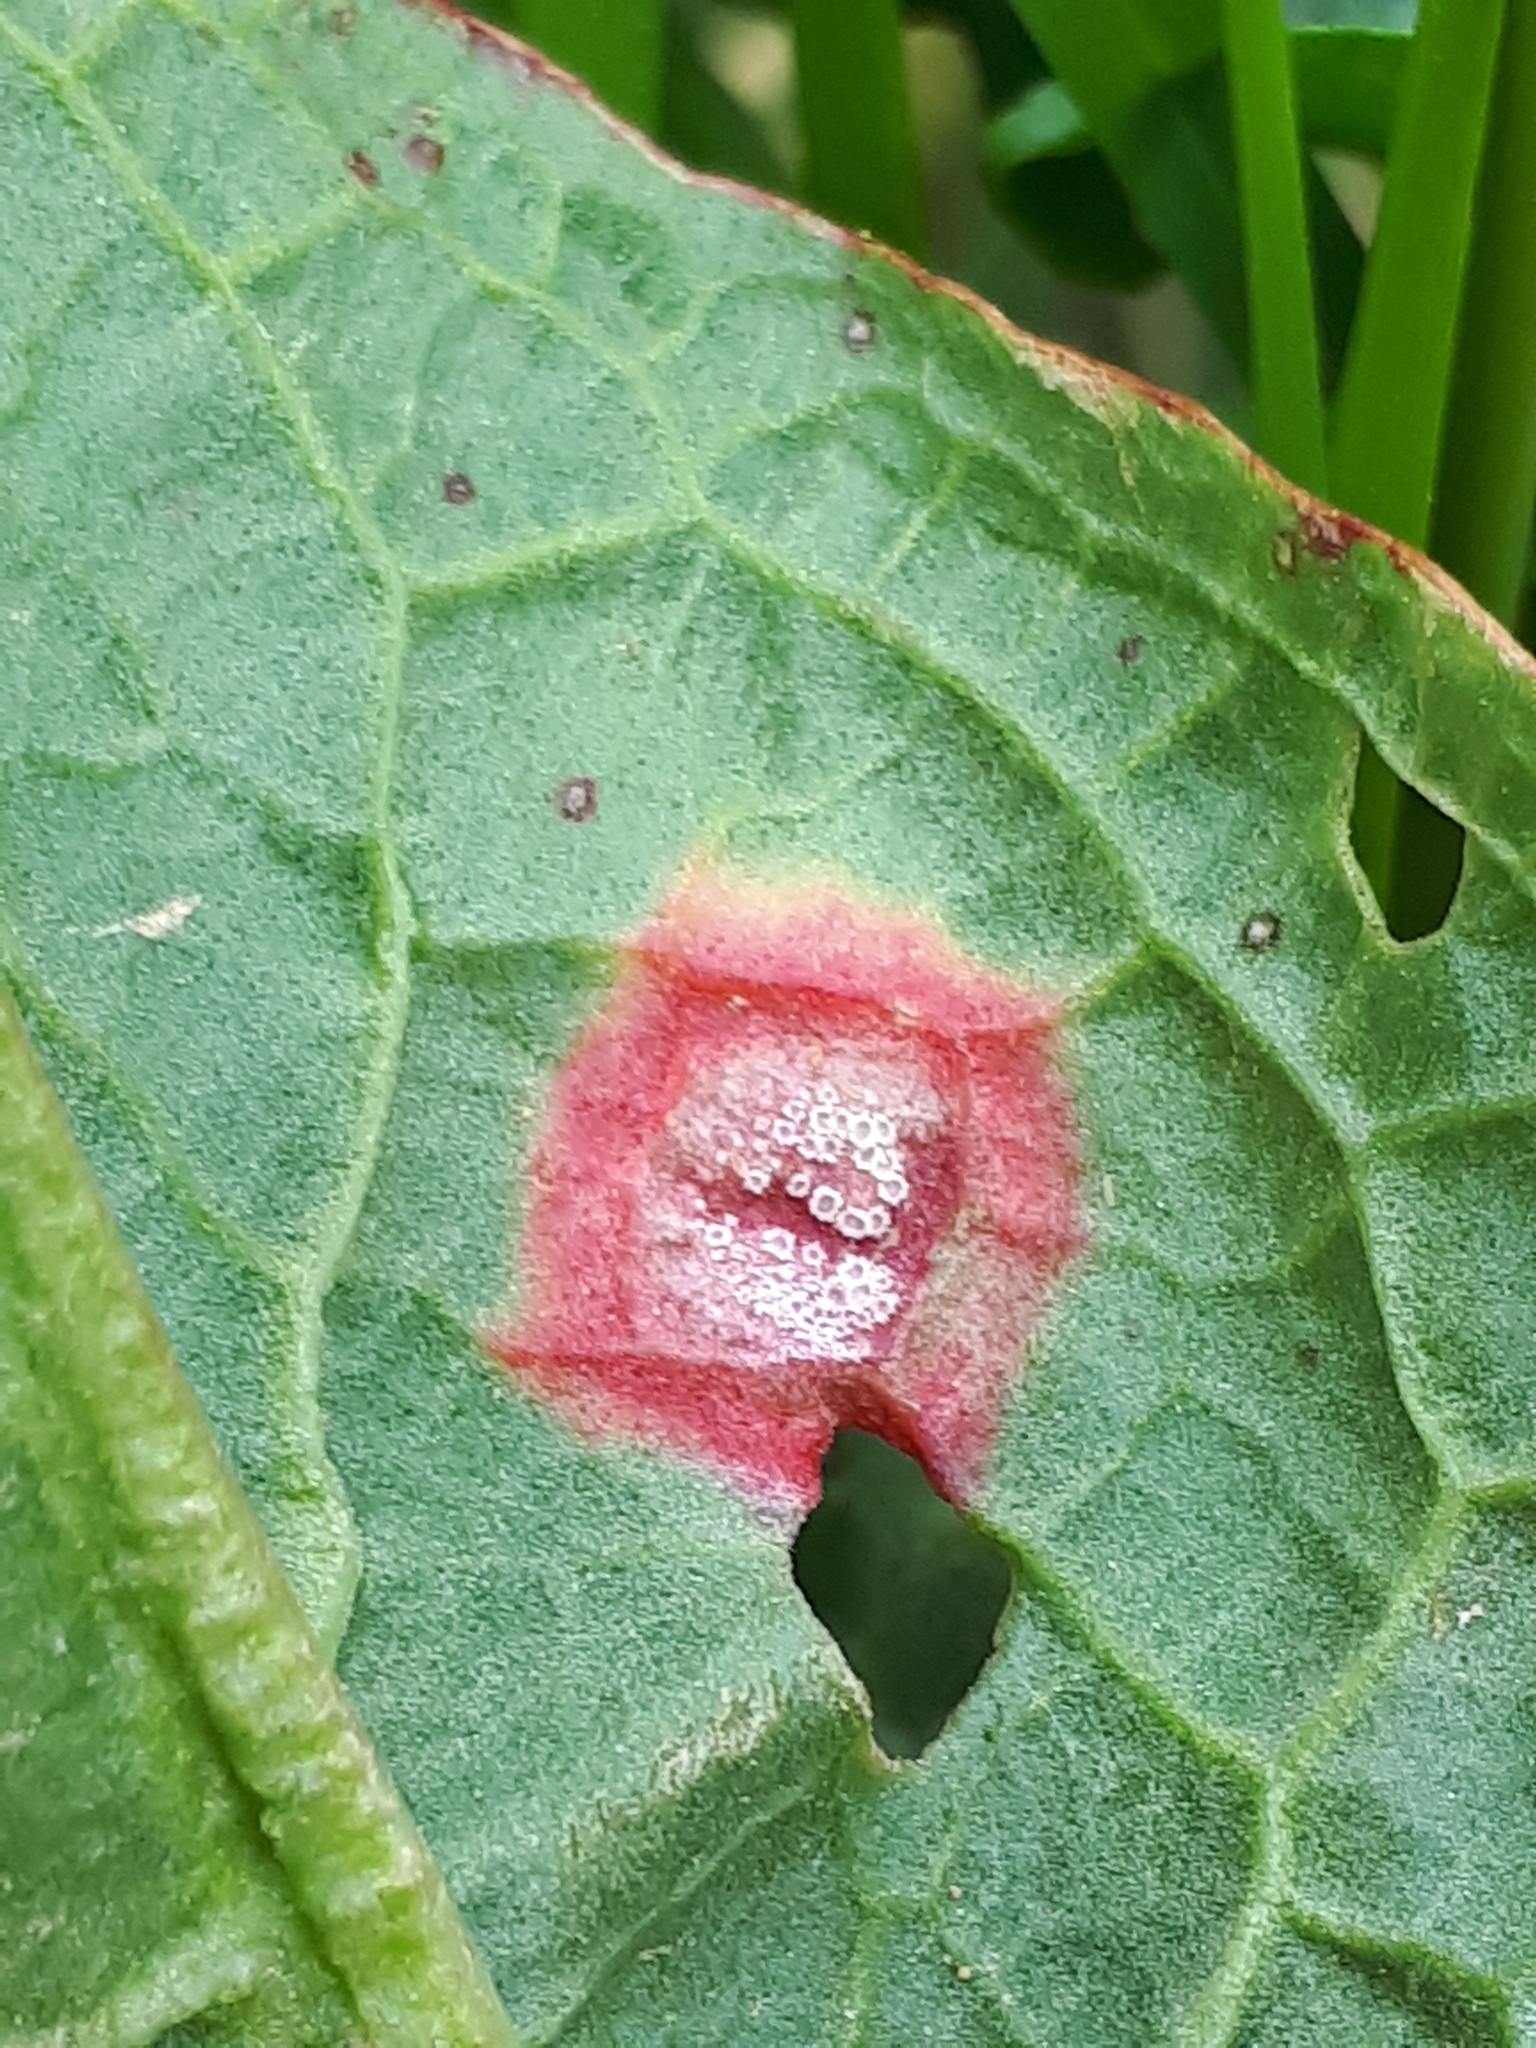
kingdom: Fungi
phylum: Basidiomycota
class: Pucciniomycetes
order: Pucciniales
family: Pucciniaceae
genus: Puccinia
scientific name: Puccinia phragmitis
